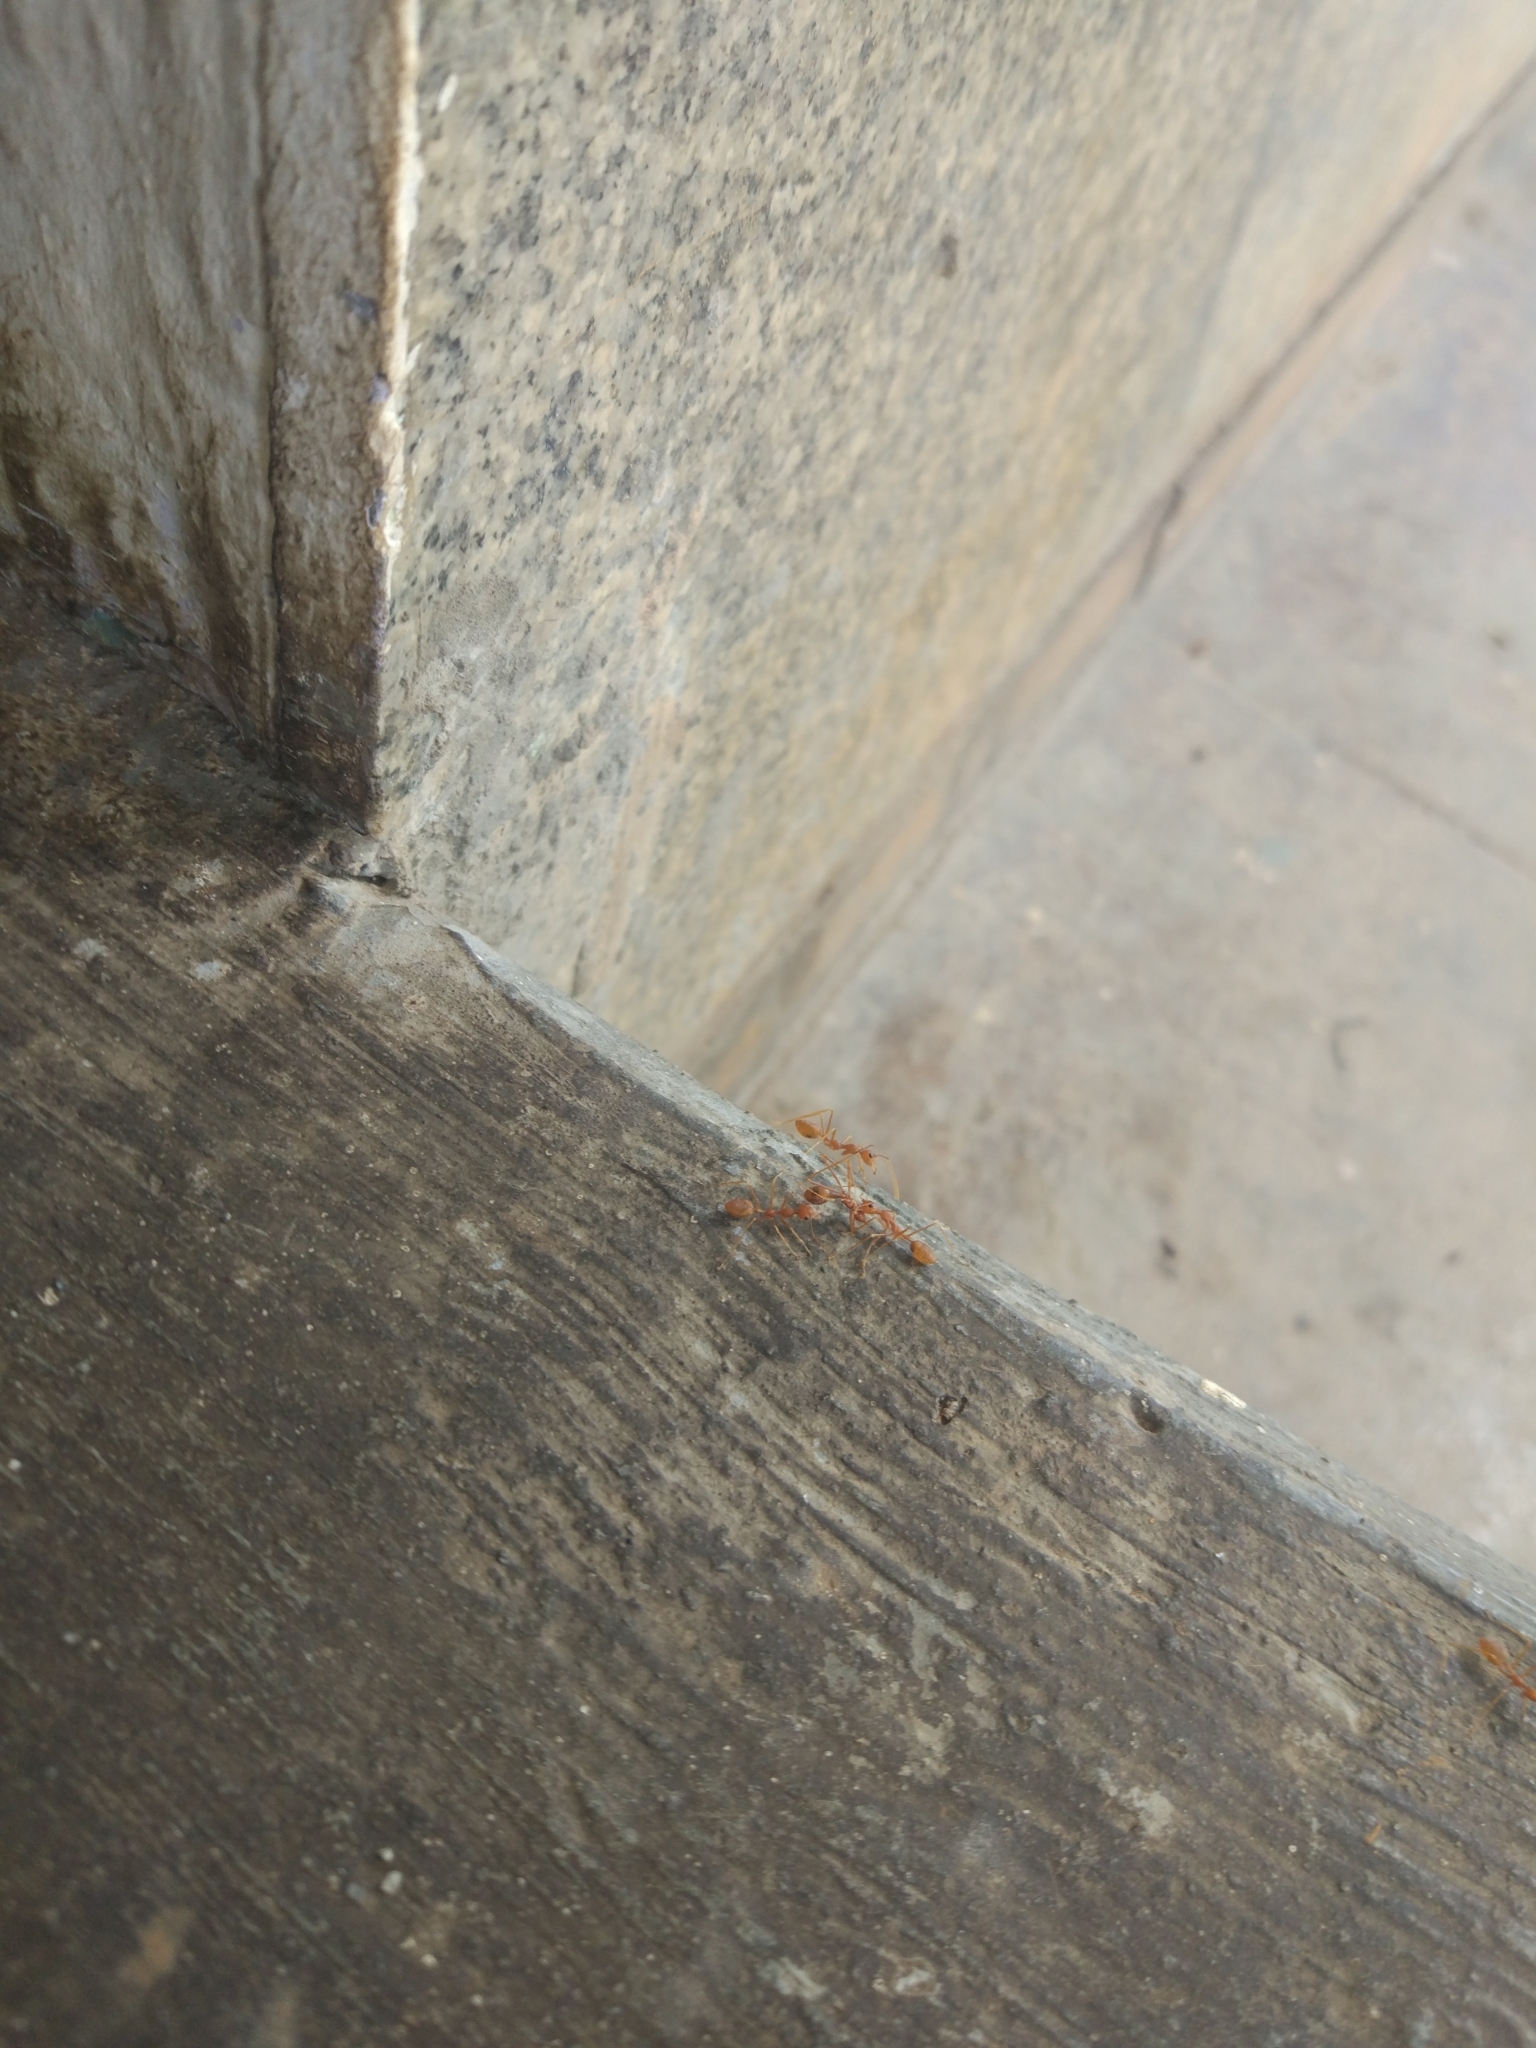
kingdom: Animalia
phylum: Arthropoda
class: Insecta
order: Hymenoptera
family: Formicidae
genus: Oecophylla
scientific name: Oecophylla smaragdina
